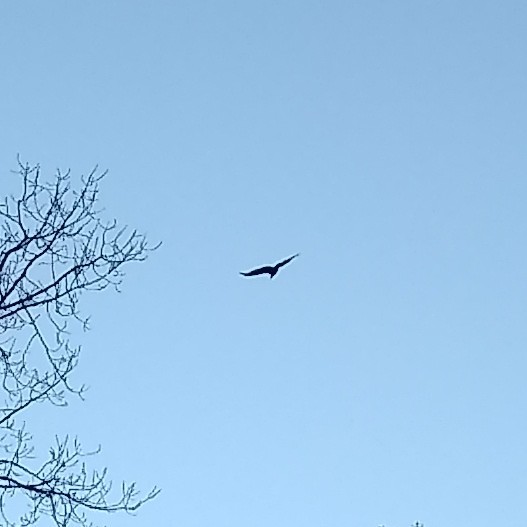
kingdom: Animalia
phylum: Chordata
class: Aves
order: Accipitriformes
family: Cathartidae
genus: Coragyps
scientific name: Coragyps atratus
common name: Black vulture
